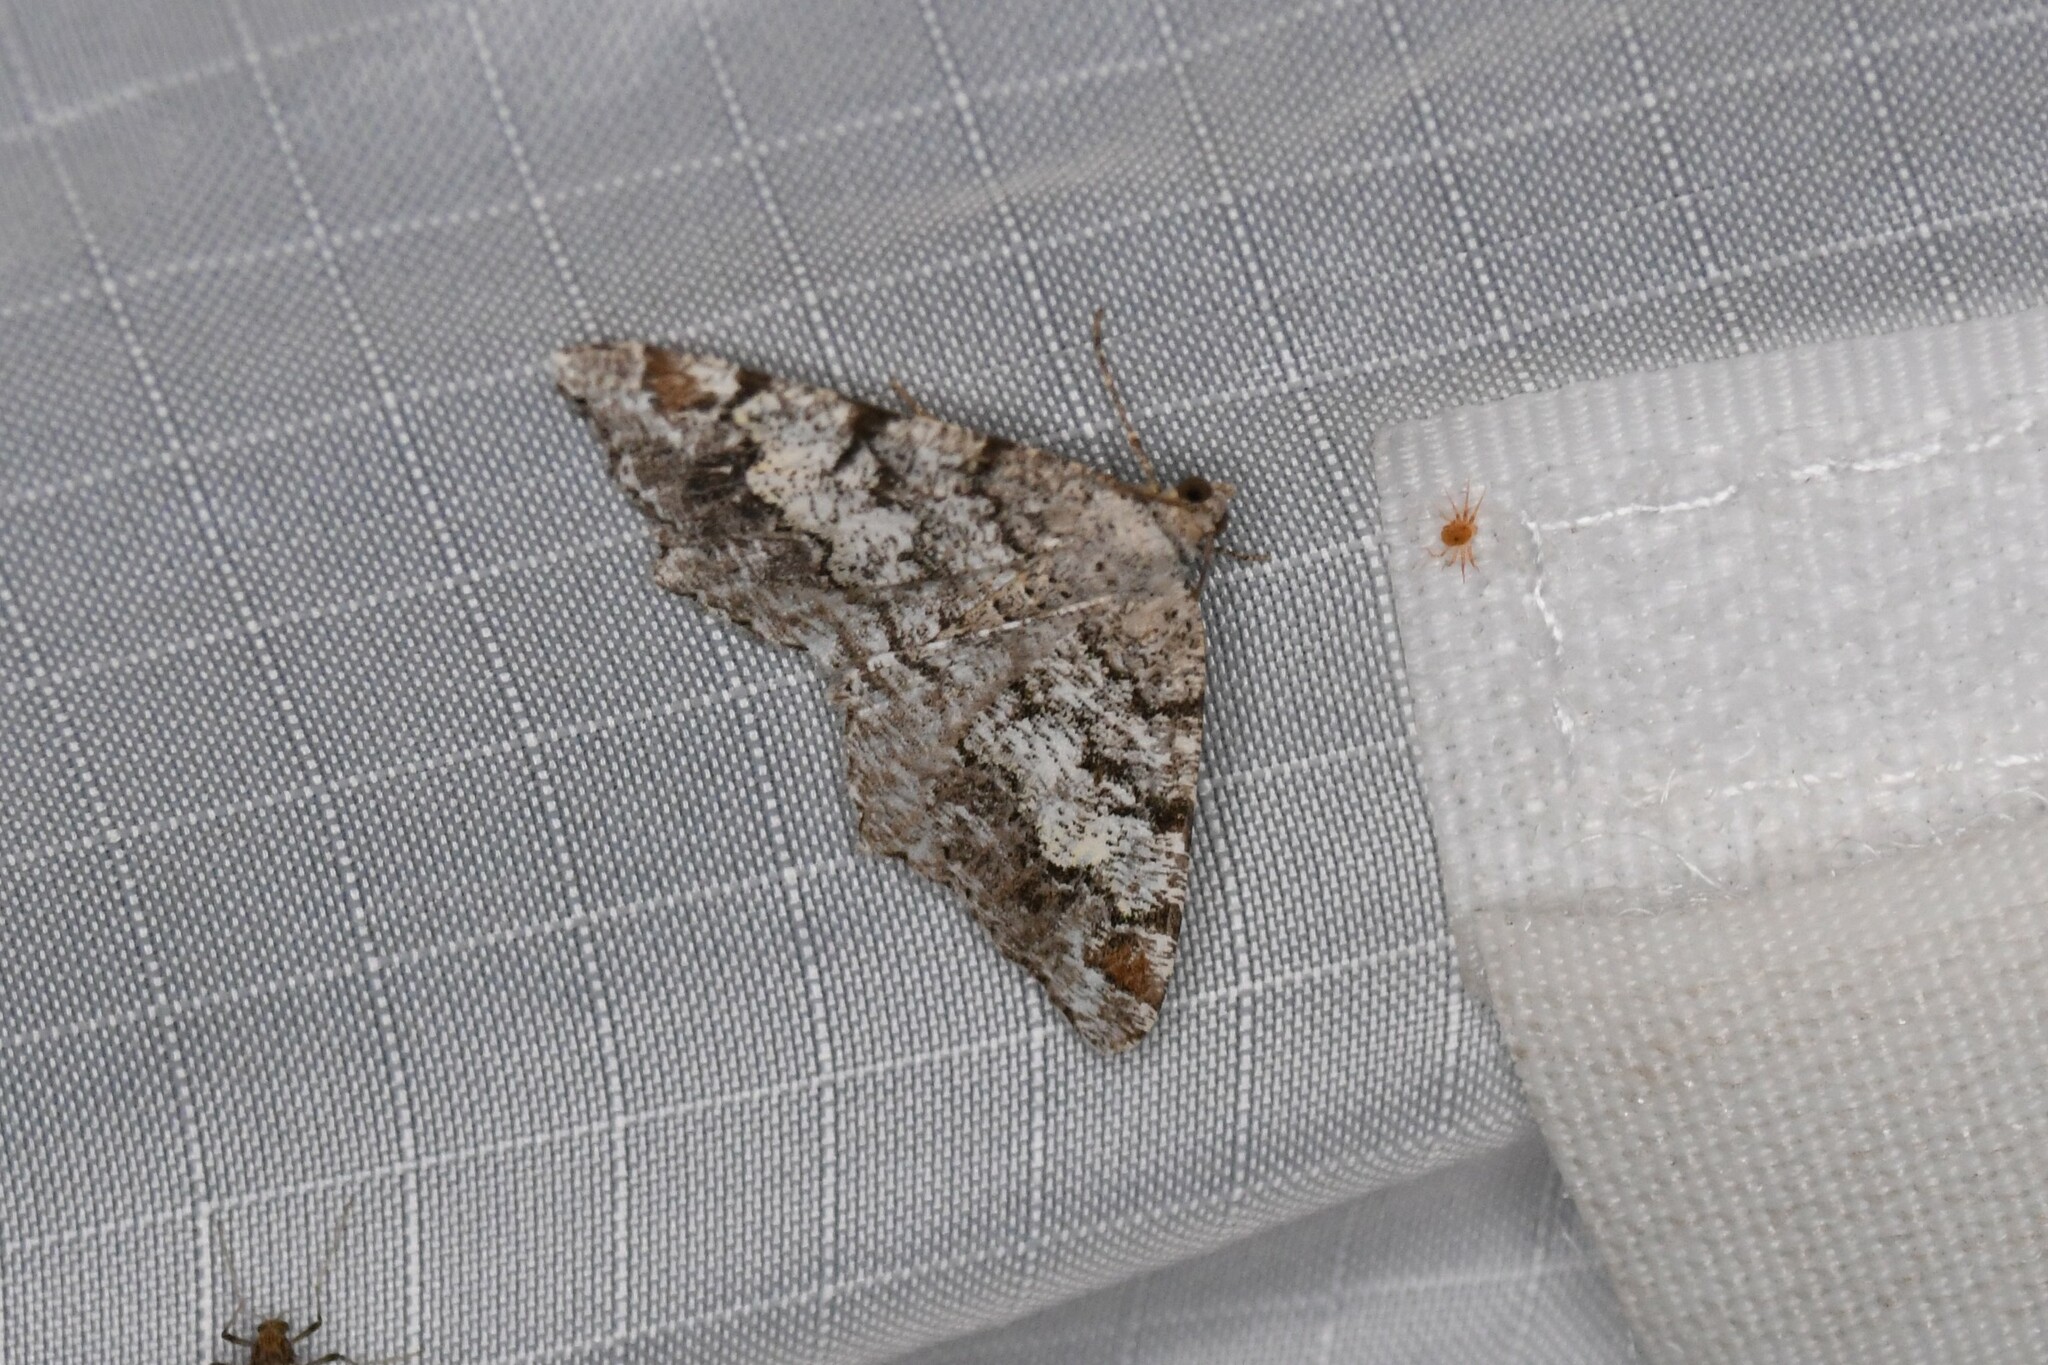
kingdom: Animalia
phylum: Arthropoda
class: Insecta
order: Lepidoptera
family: Geometridae
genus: Macaria
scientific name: Macaria granitata
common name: Granite moth
